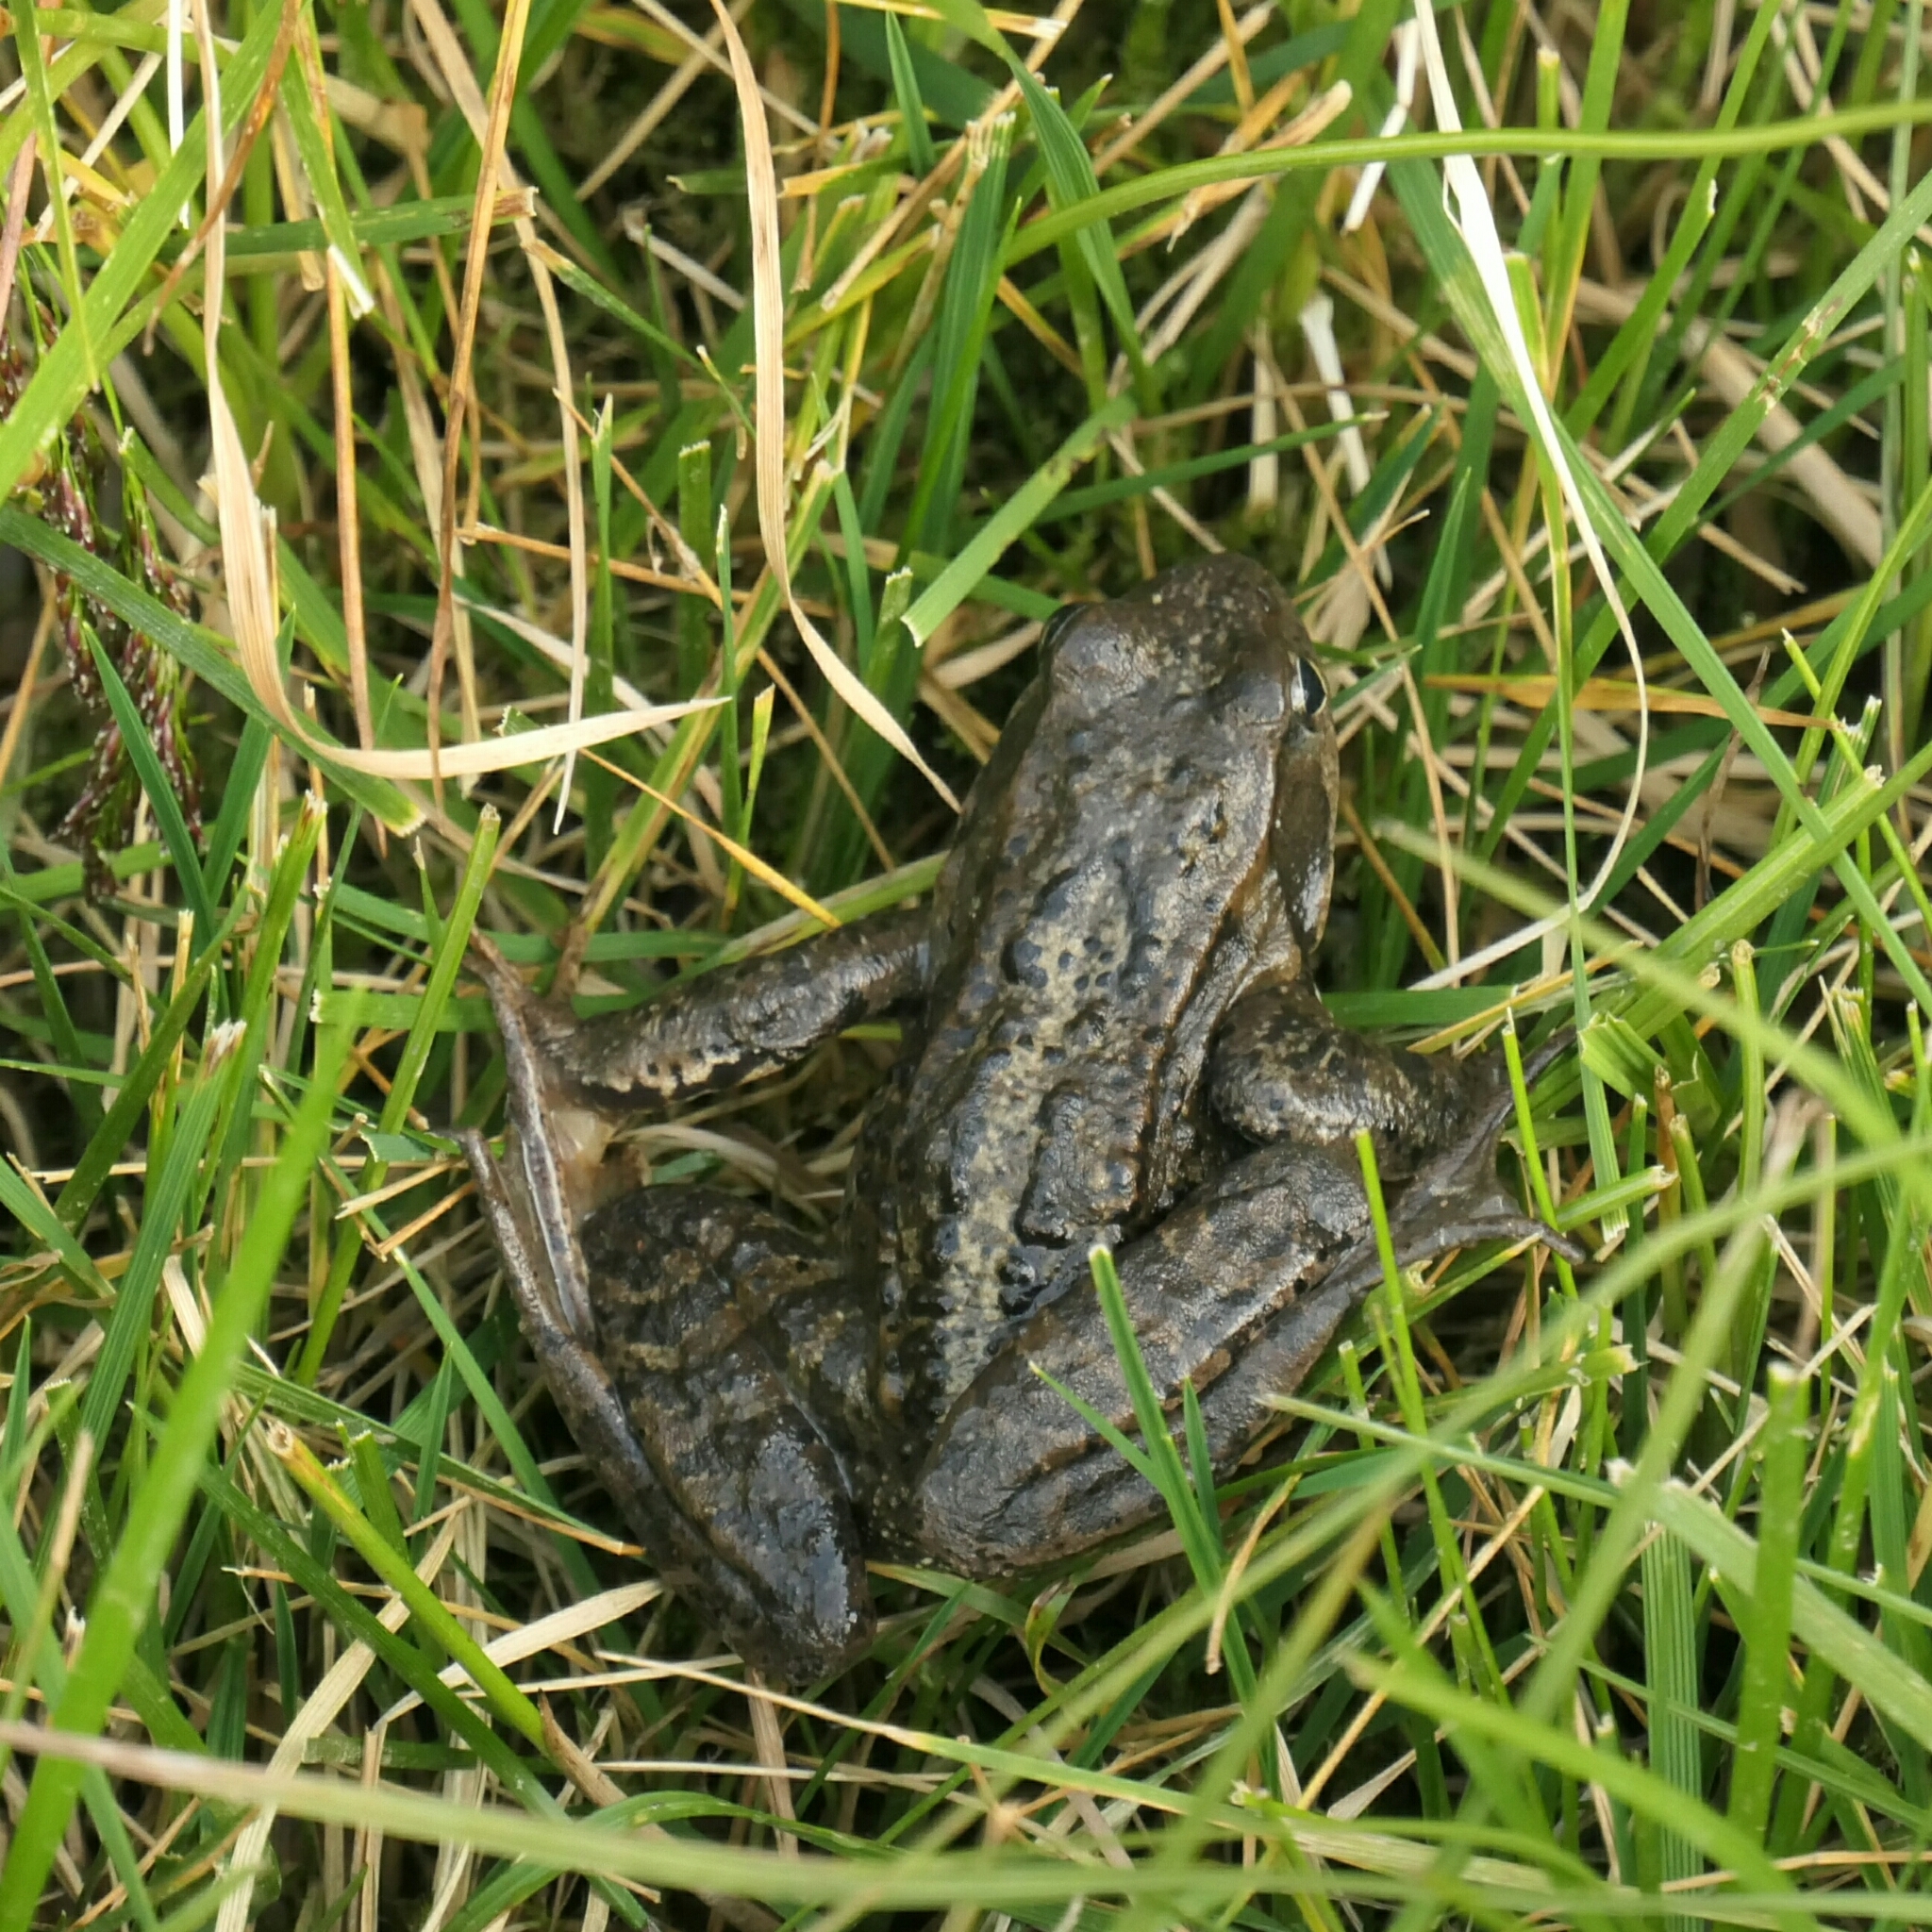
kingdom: Animalia
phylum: Chordata
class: Amphibia
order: Anura
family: Ranidae
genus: Rana
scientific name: Rana temporaria
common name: Common frog
